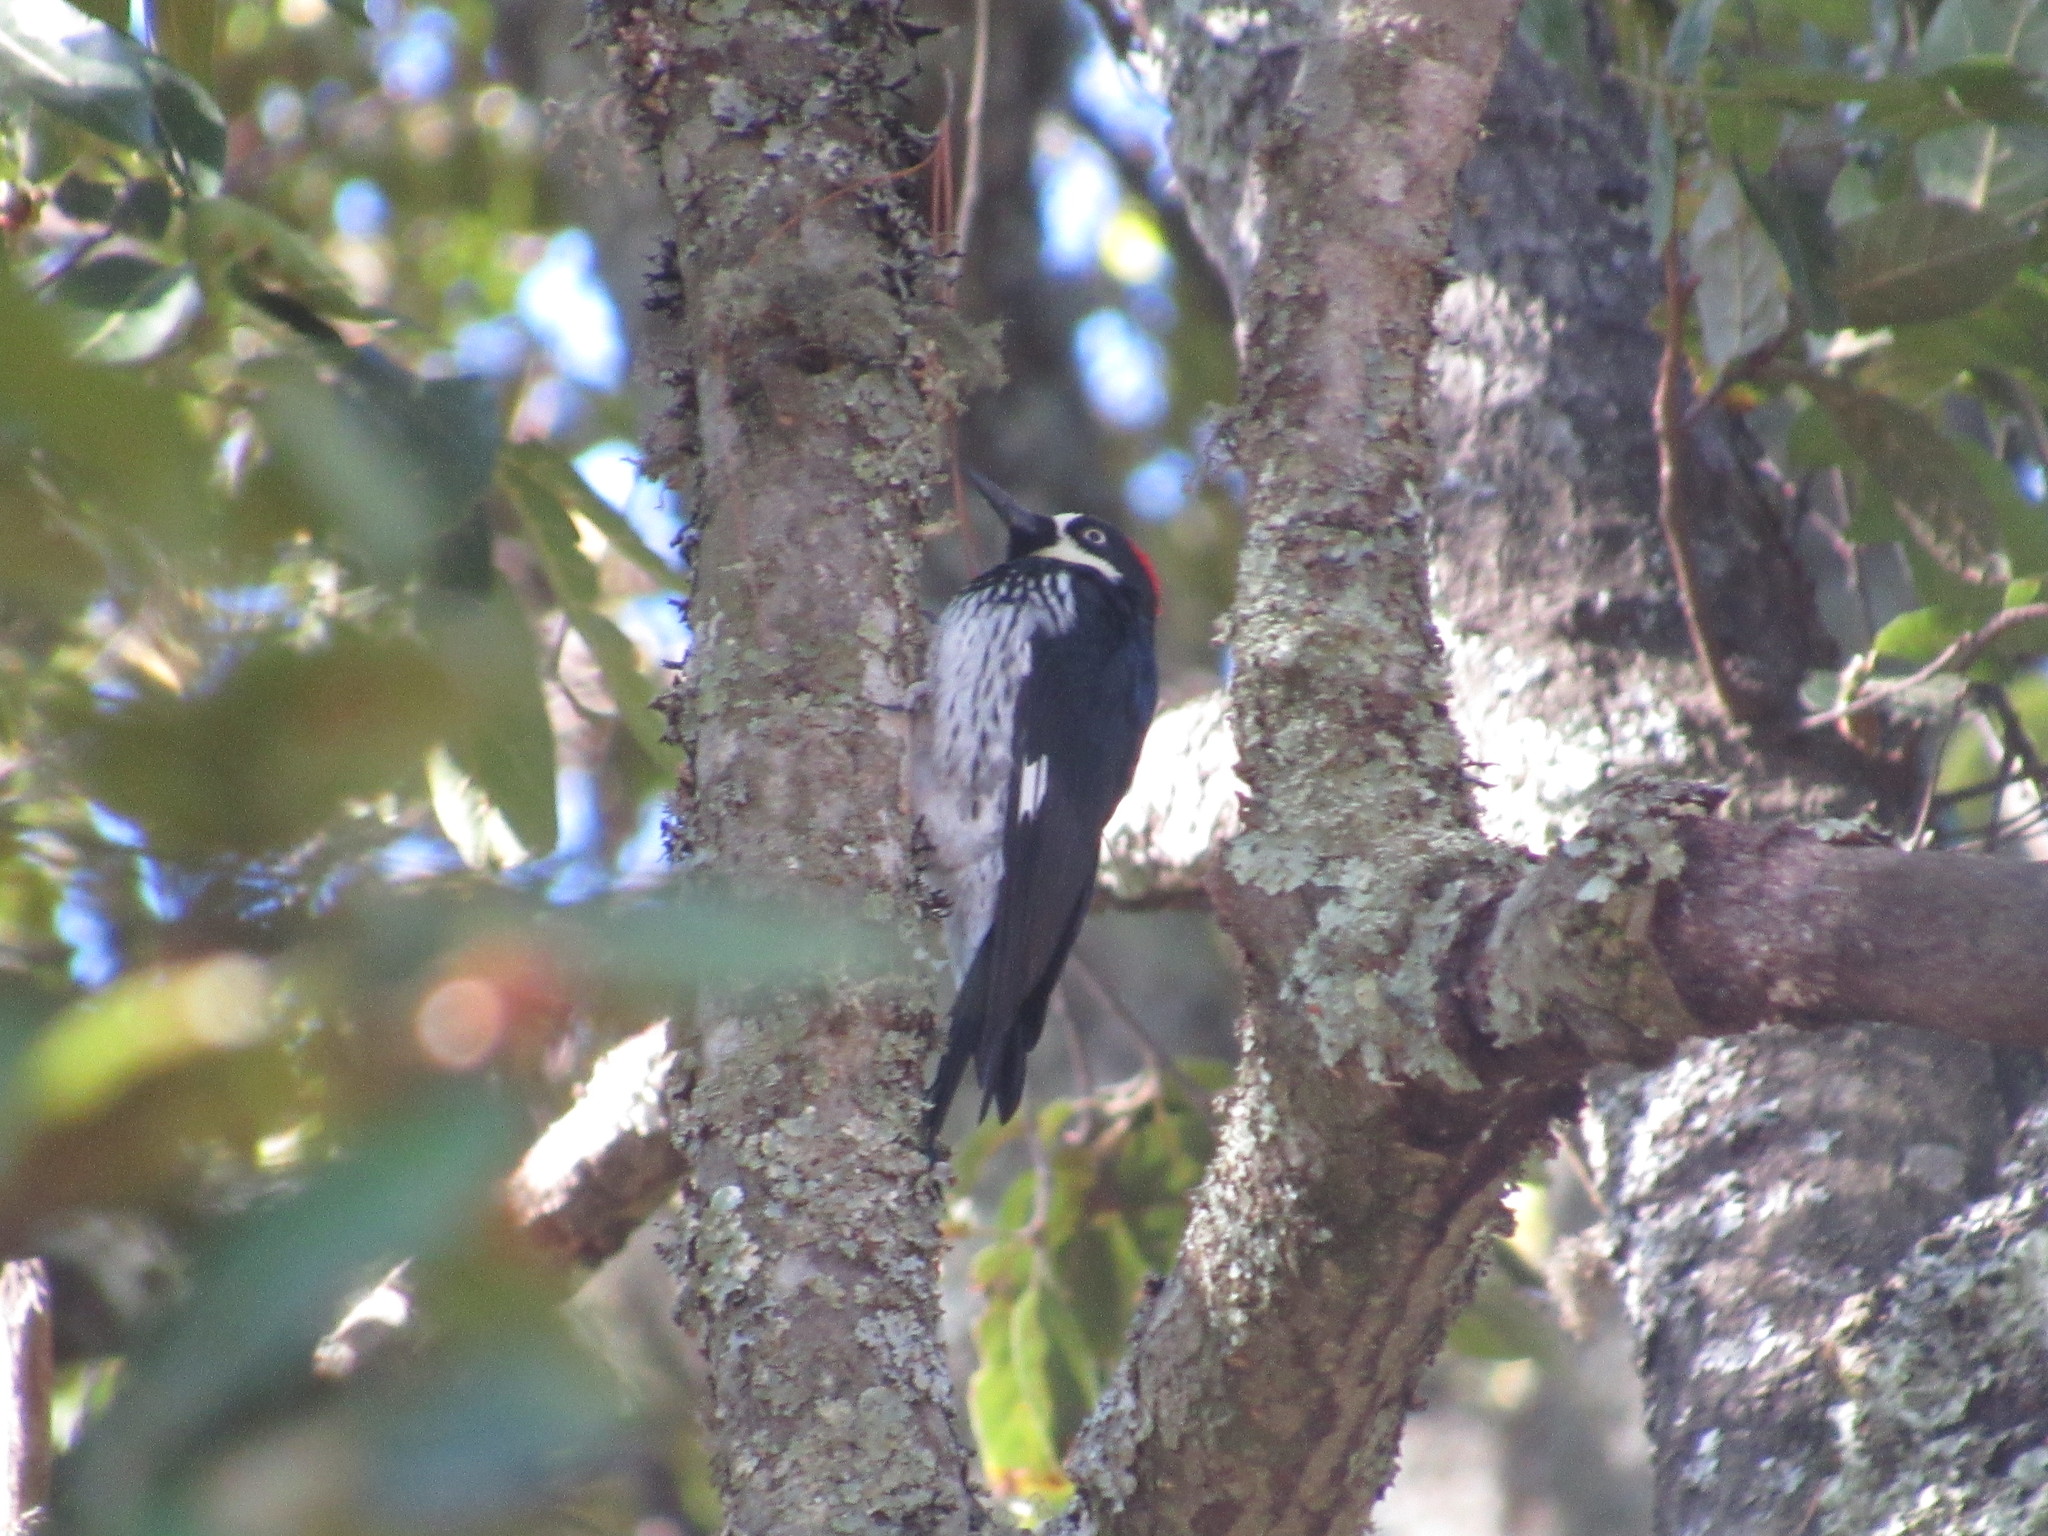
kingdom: Animalia
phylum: Chordata
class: Aves
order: Piciformes
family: Picidae
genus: Melanerpes
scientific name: Melanerpes formicivorus
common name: Acorn woodpecker
